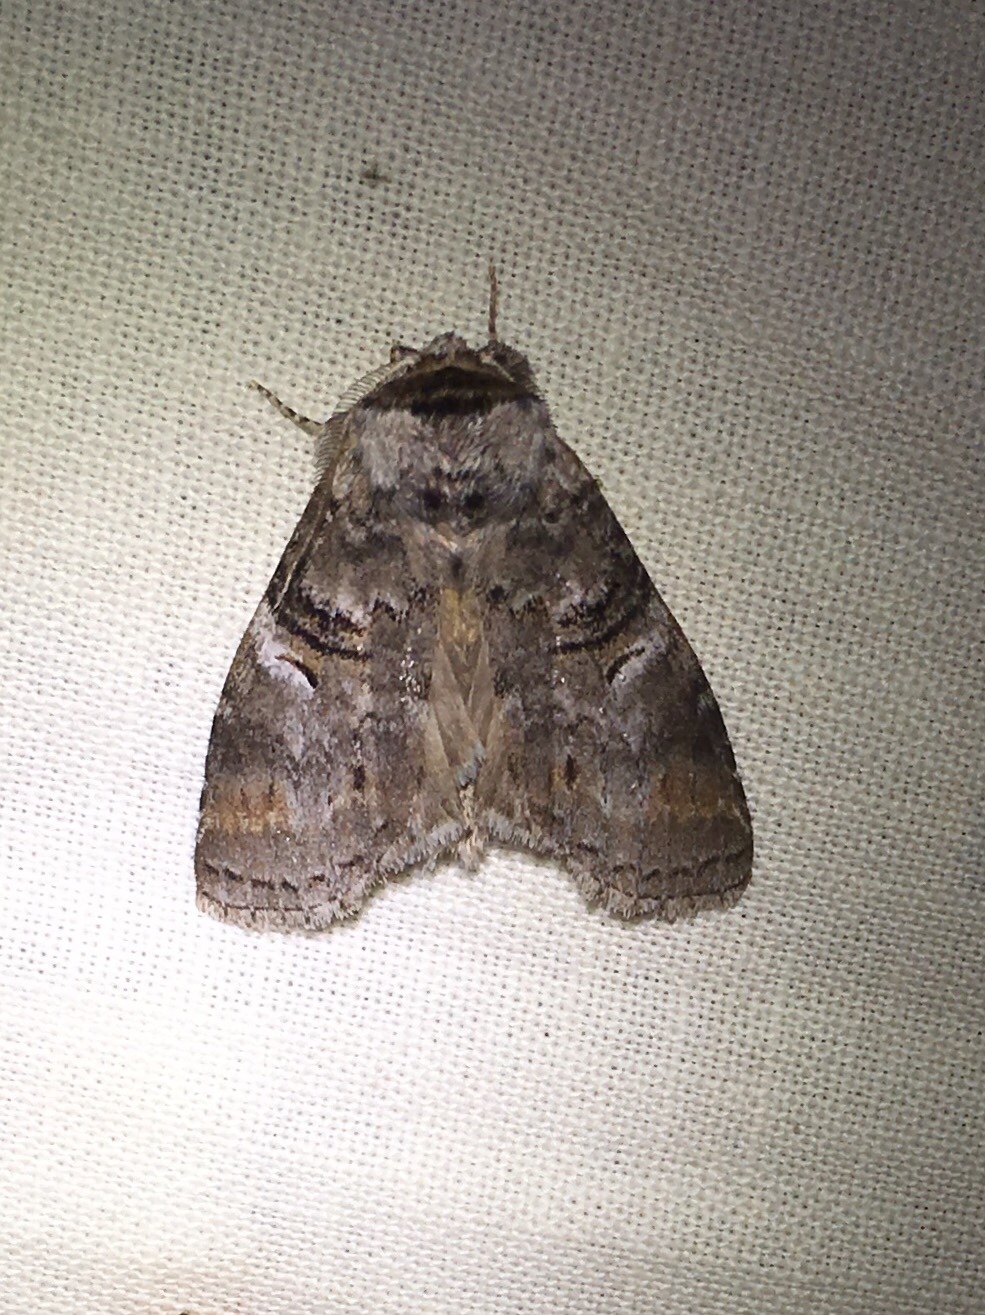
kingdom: Animalia
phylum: Arthropoda
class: Insecta
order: Lepidoptera
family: Notodontidae
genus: Ellida
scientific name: Ellida caniplaga
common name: Linden prominent
